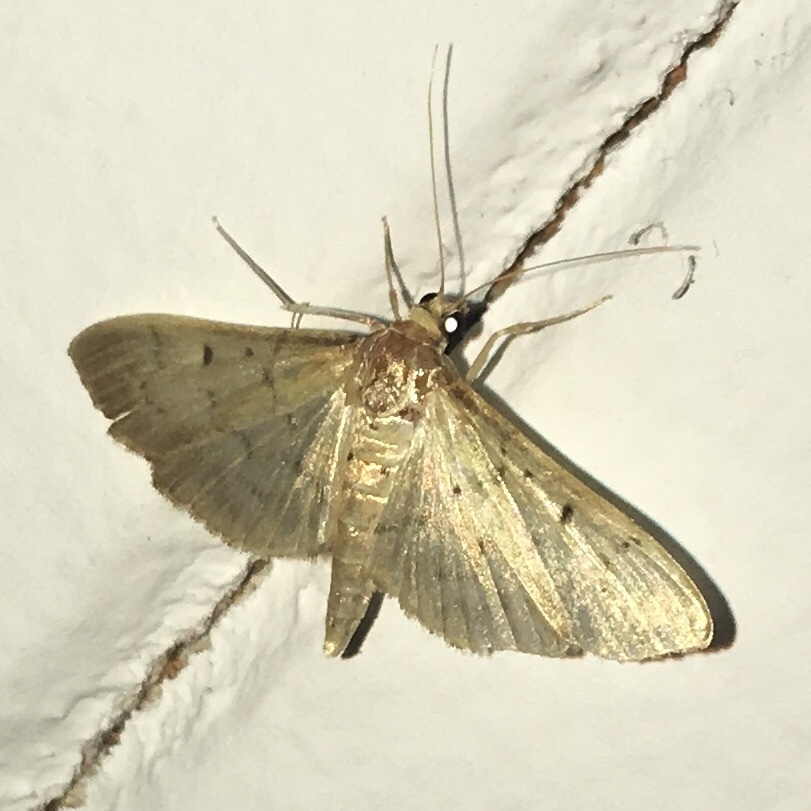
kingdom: Animalia
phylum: Arthropoda
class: Insecta
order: Lepidoptera
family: Crambidae
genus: Herpetogramma
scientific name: Herpetogramma bipunctalis
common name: Southern beet webworm
